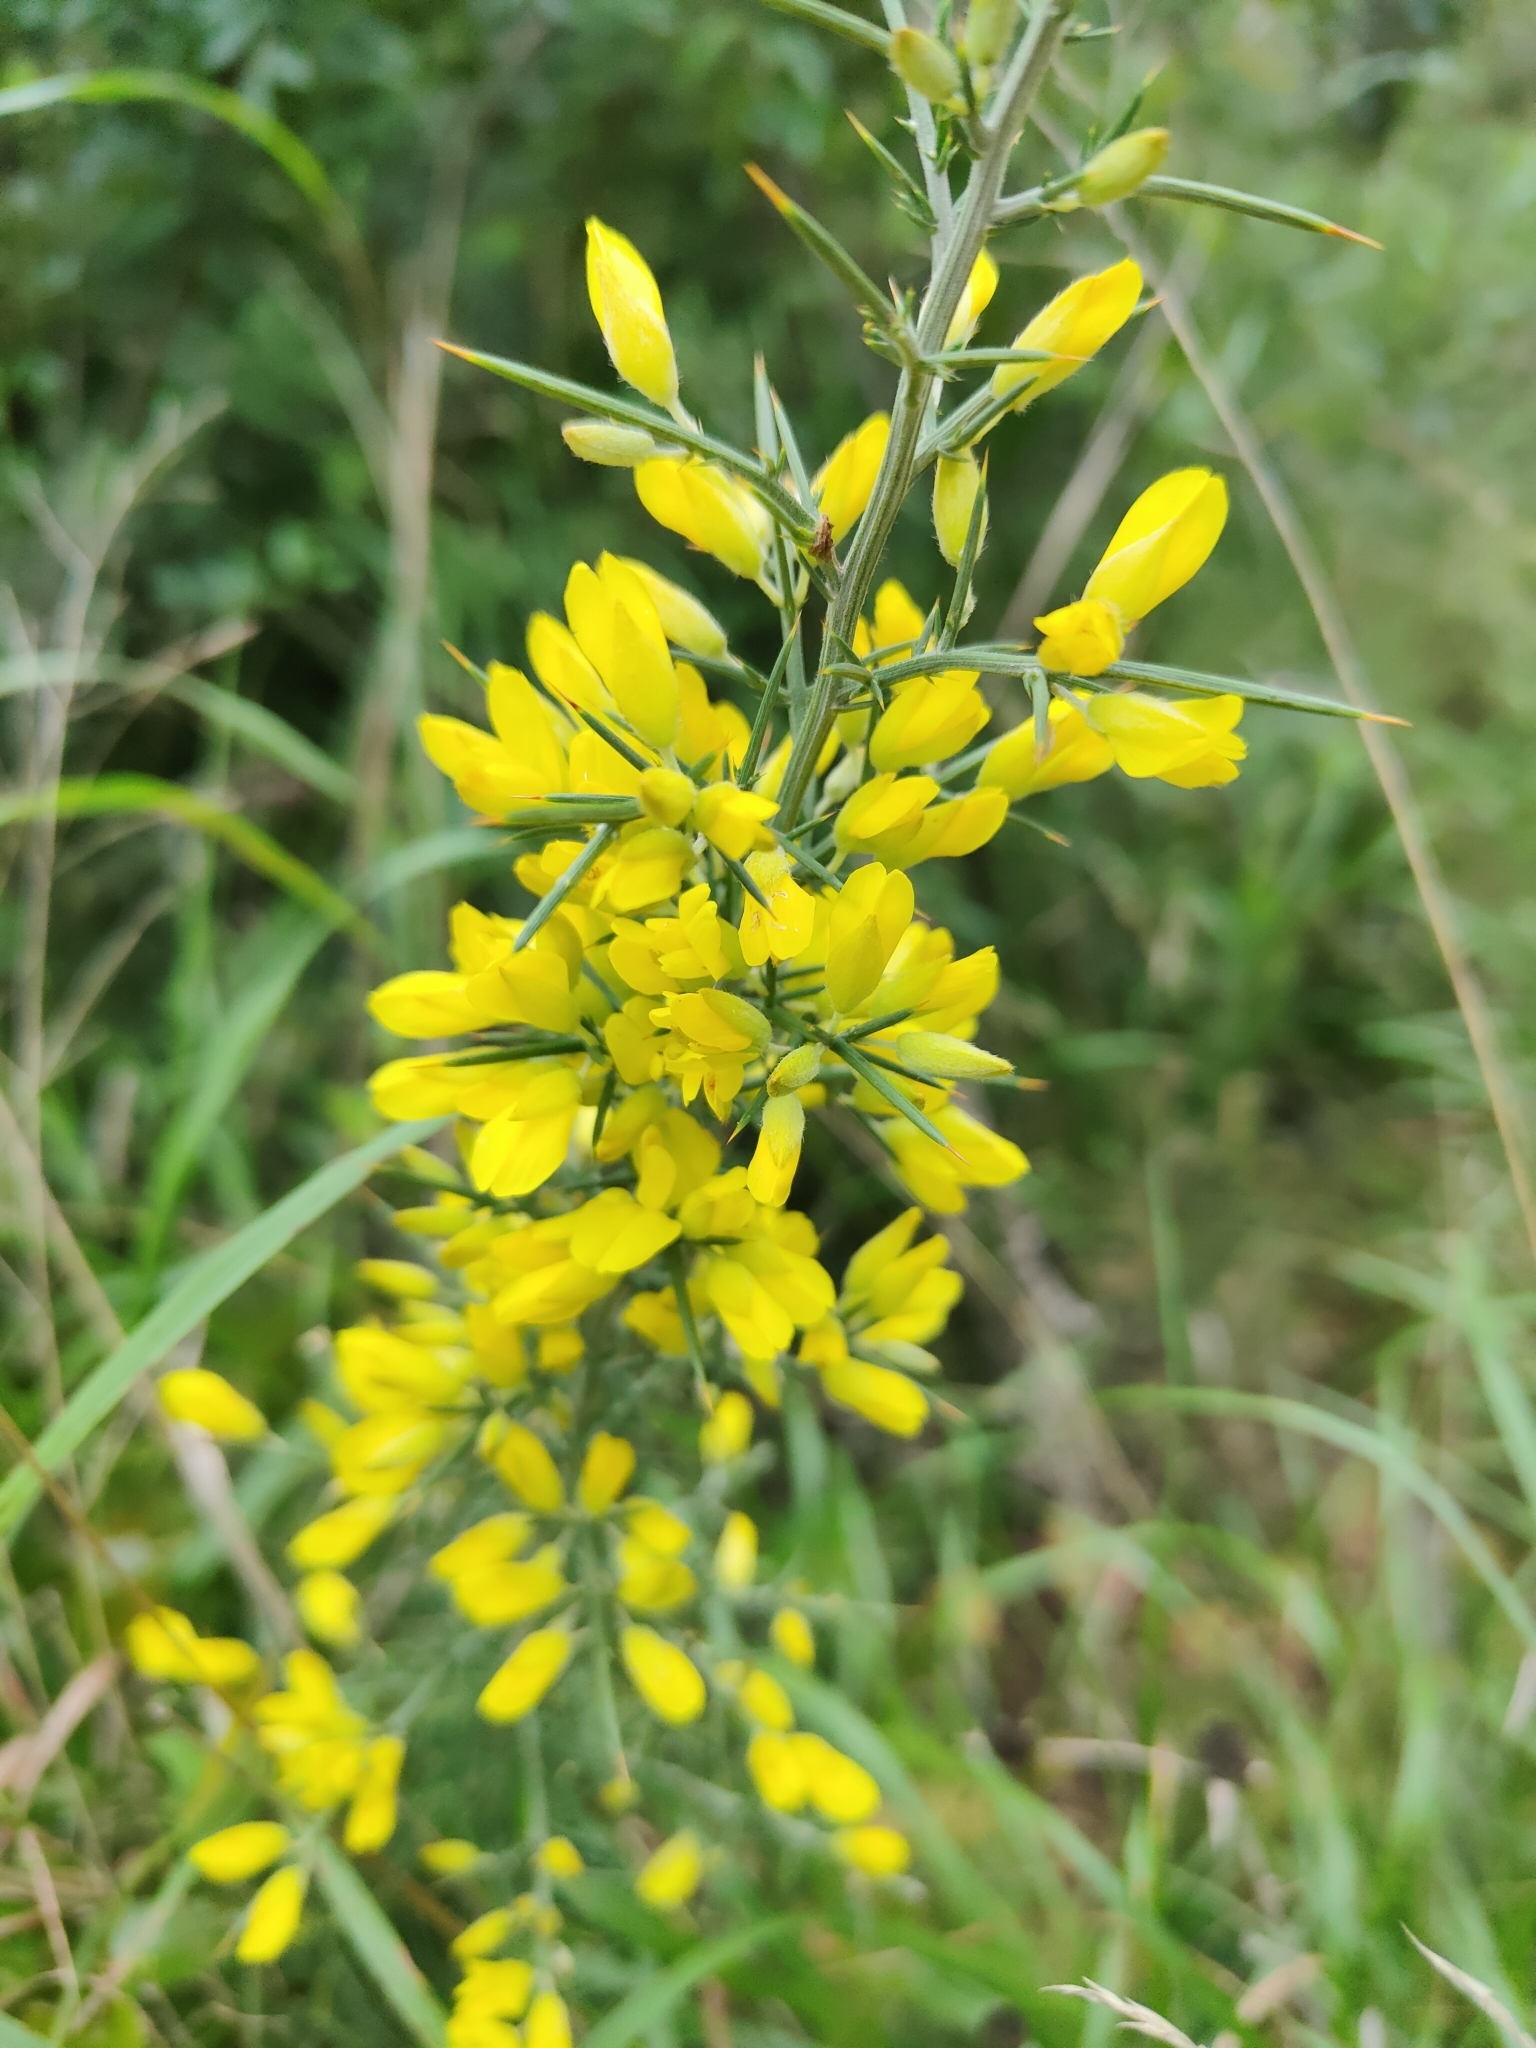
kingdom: Plantae
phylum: Tracheophyta
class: Magnoliopsida
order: Fabales
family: Fabaceae
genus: Ulex
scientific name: Ulex parviflorus
